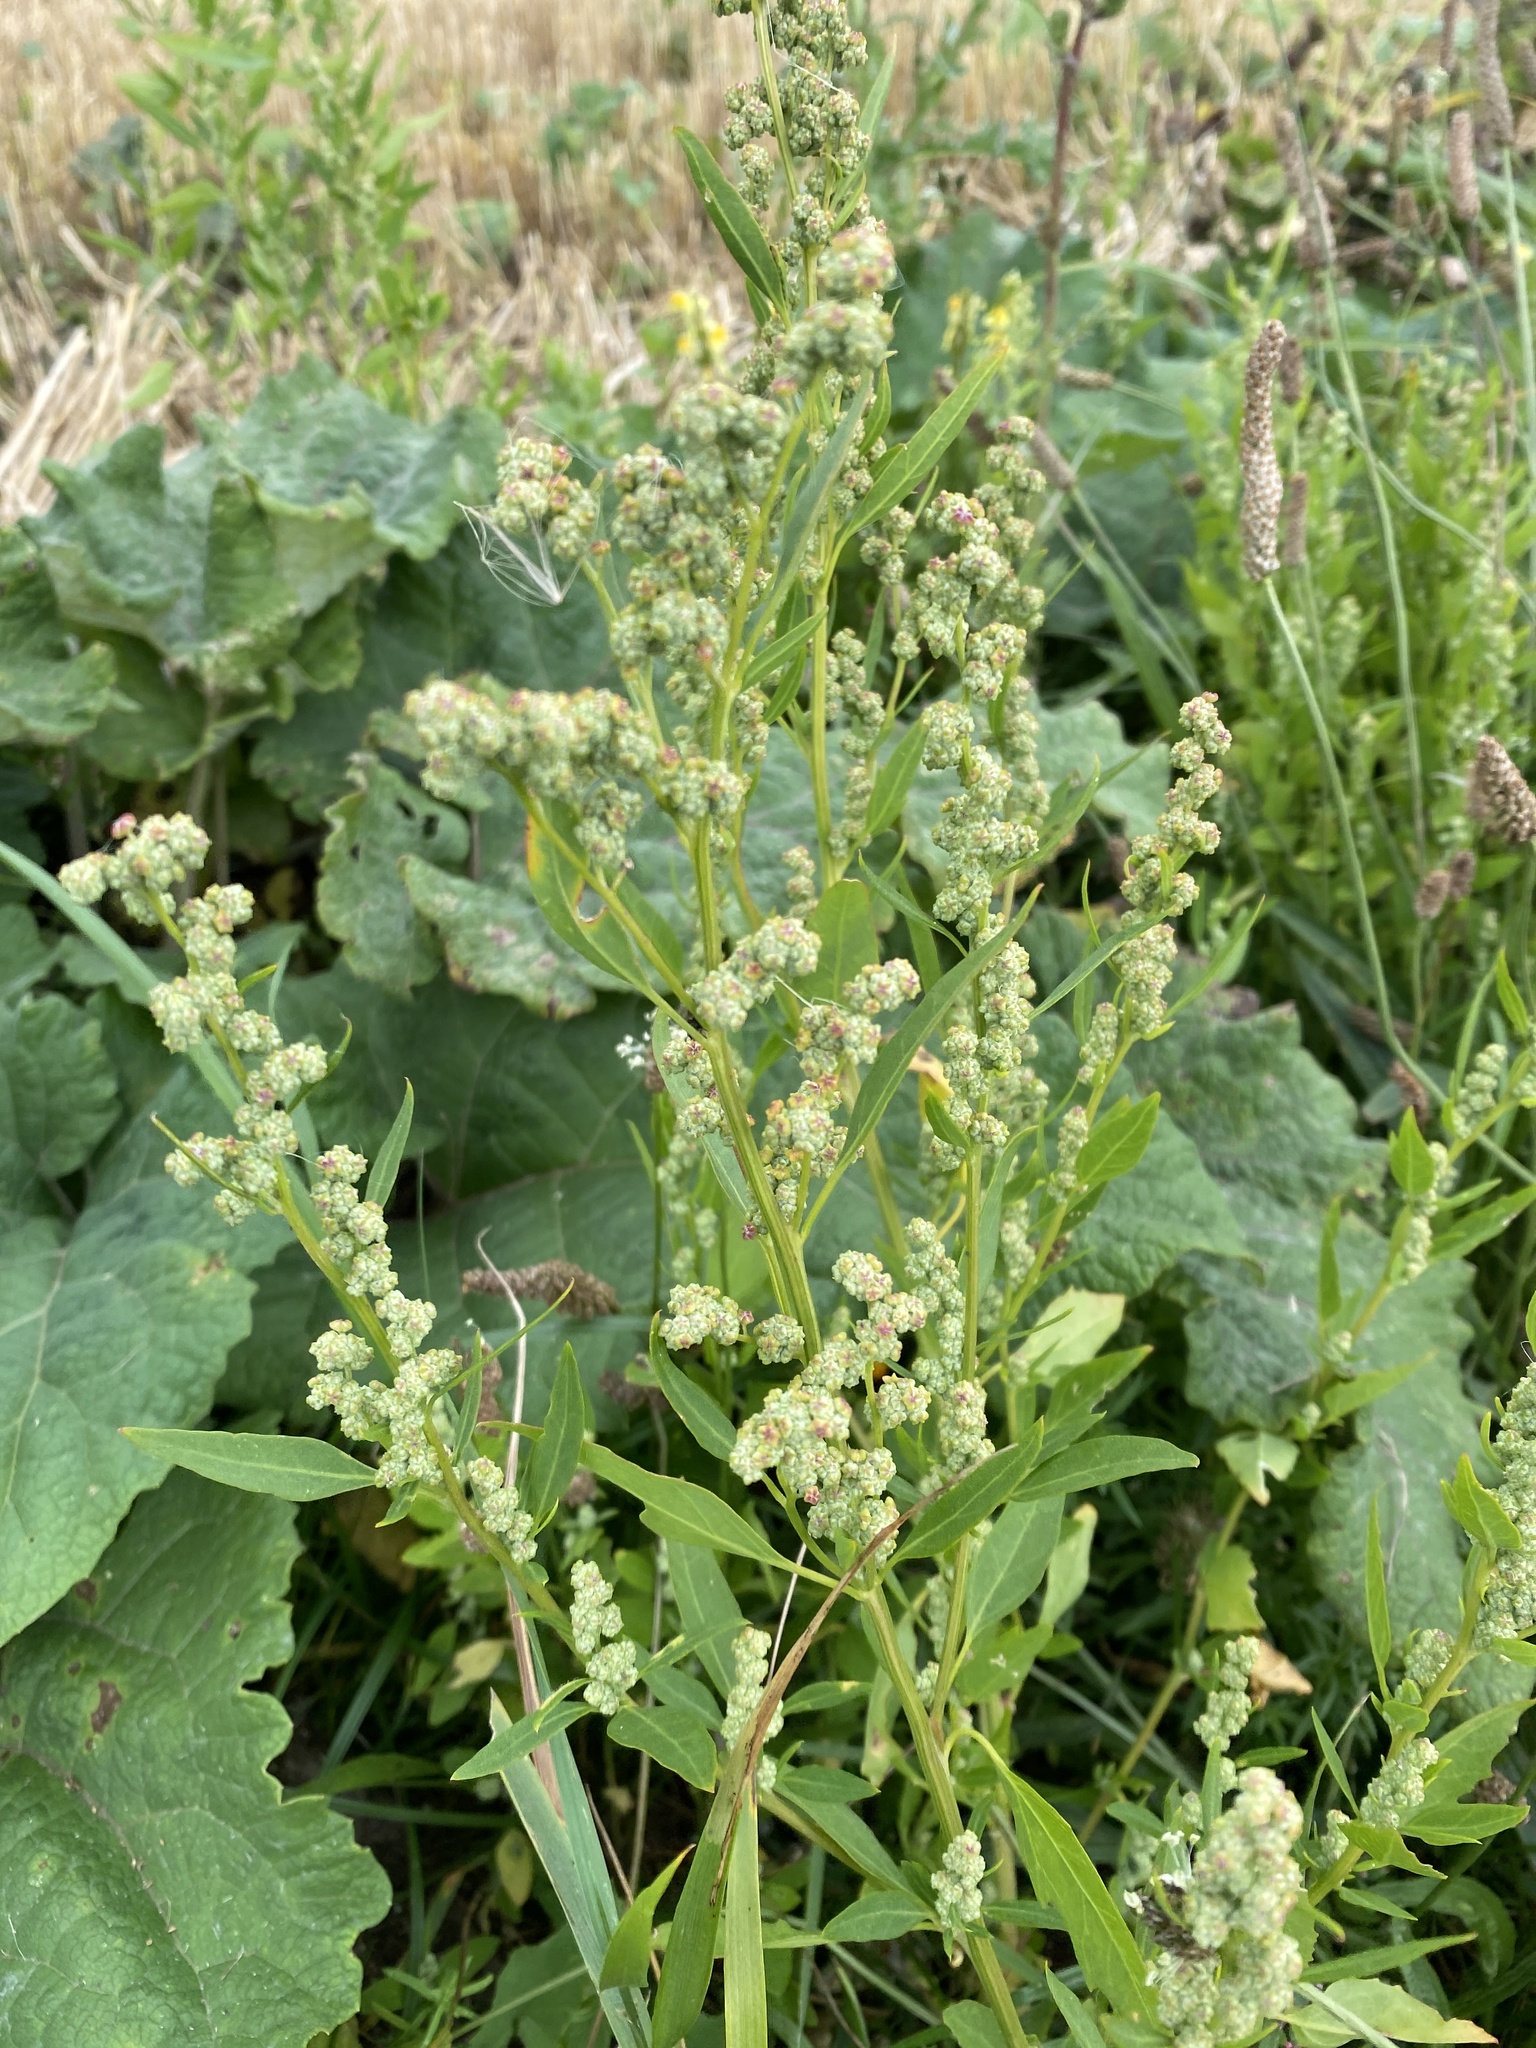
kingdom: Plantae
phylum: Tracheophyta
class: Magnoliopsida
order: Caryophyllales
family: Amaranthaceae
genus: Chenopodium
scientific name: Chenopodium album
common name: Fat-hen
